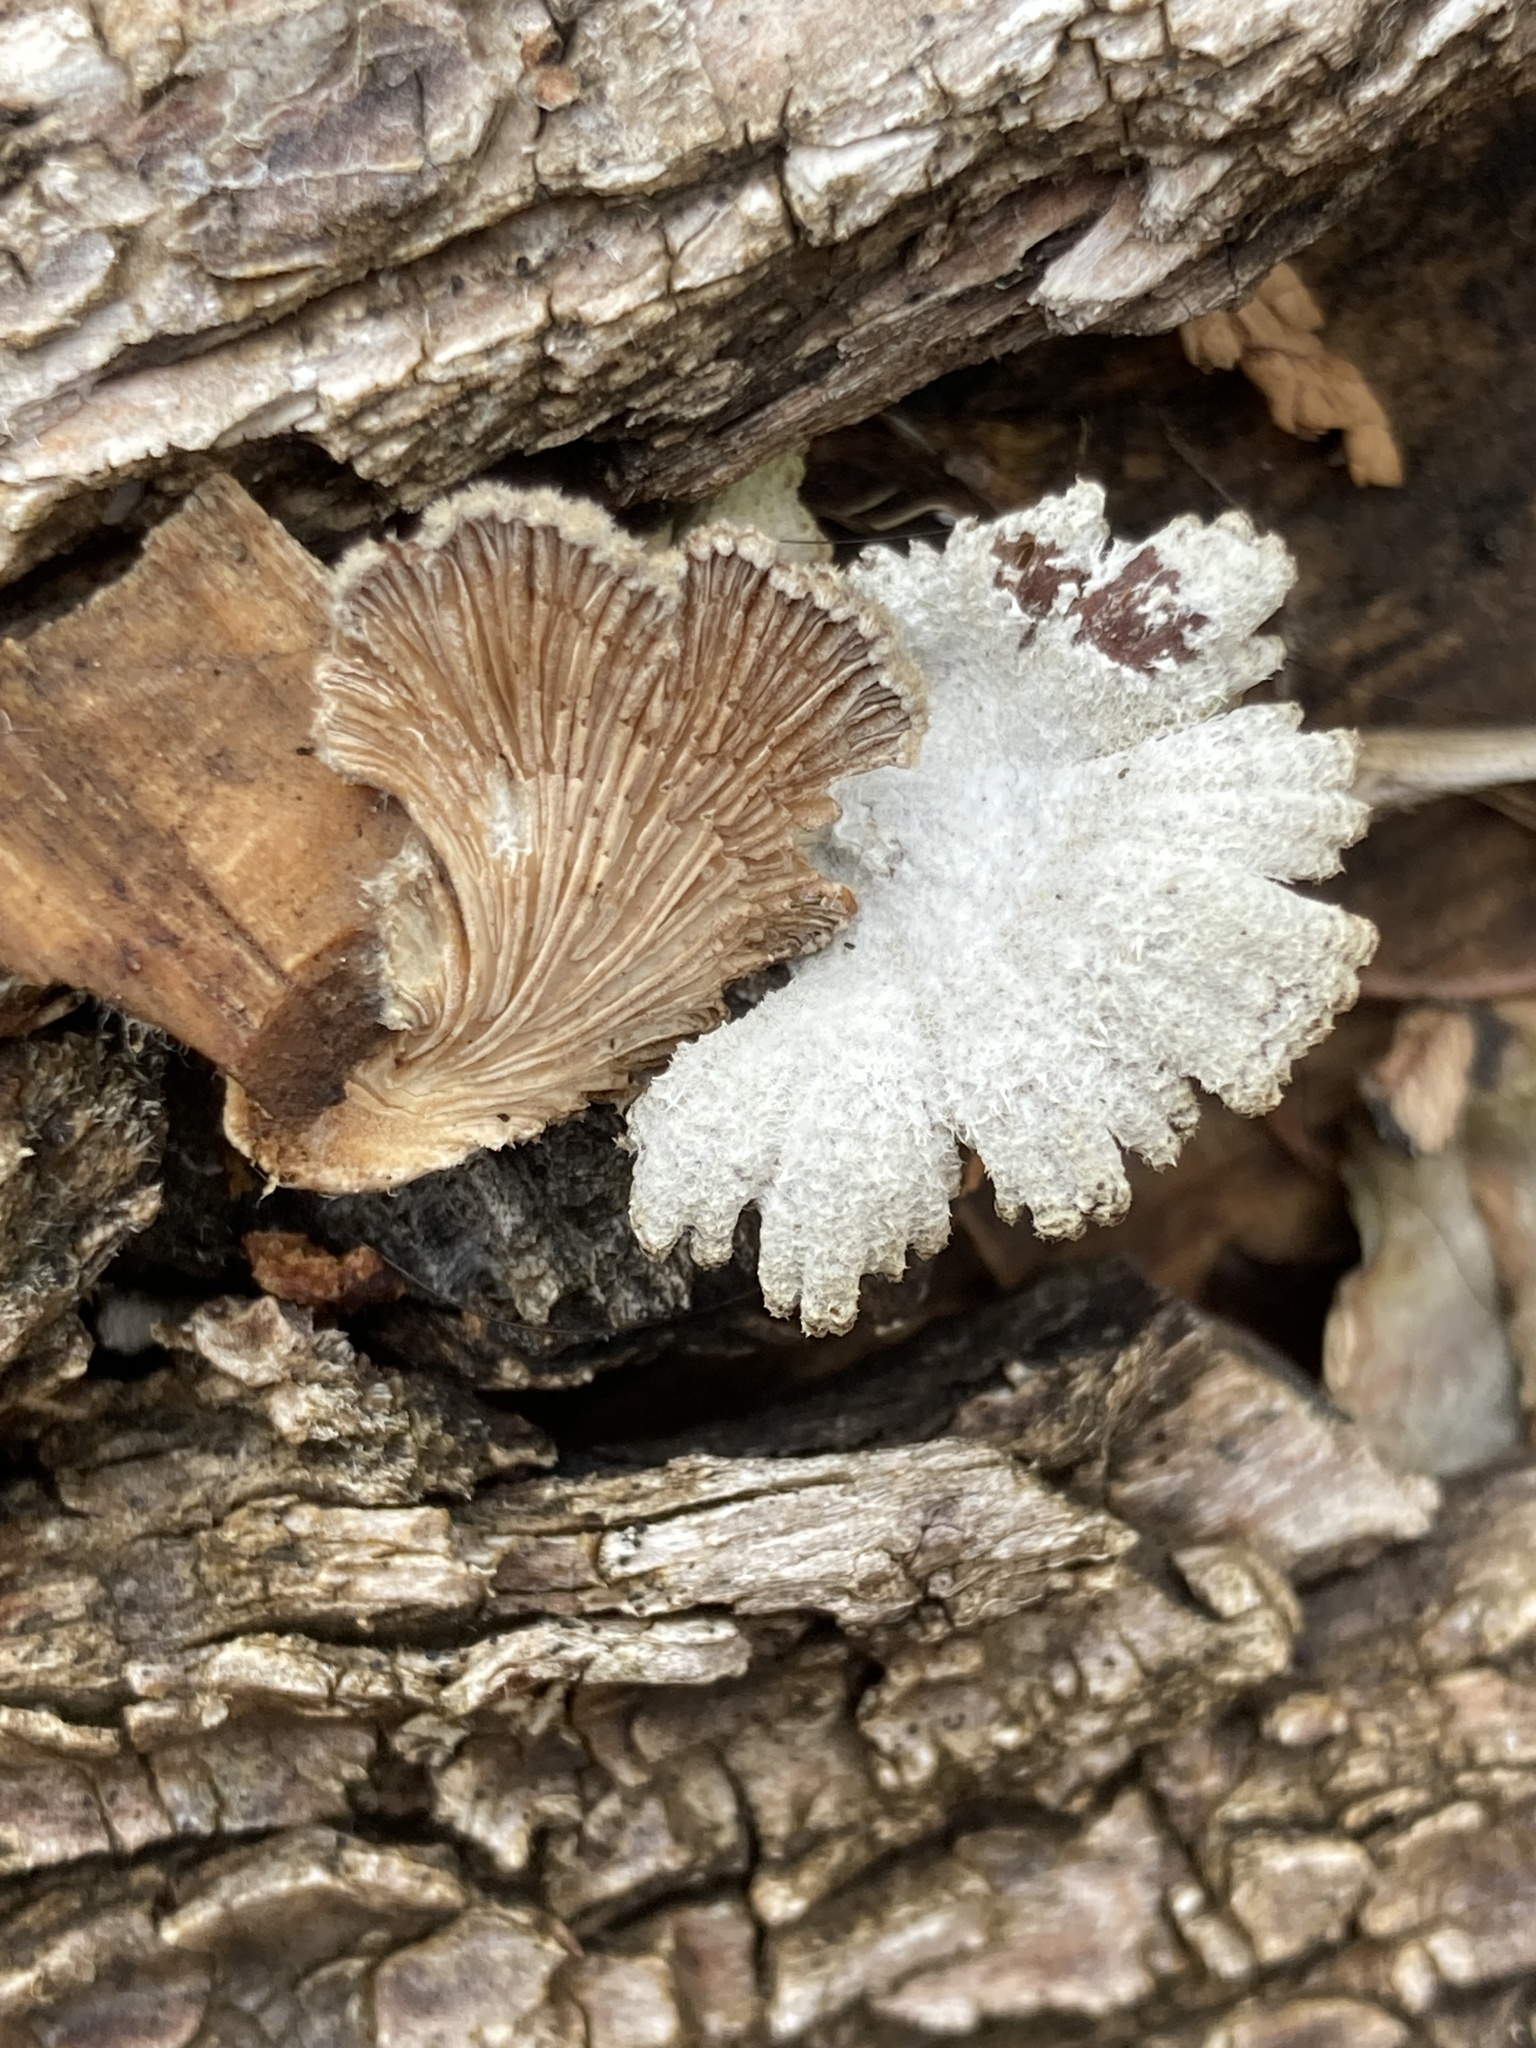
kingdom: Fungi
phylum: Basidiomycota
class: Agaricomycetes
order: Agaricales
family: Schizophyllaceae
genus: Schizophyllum
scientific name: Schizophyllum commune
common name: Common porecrust
